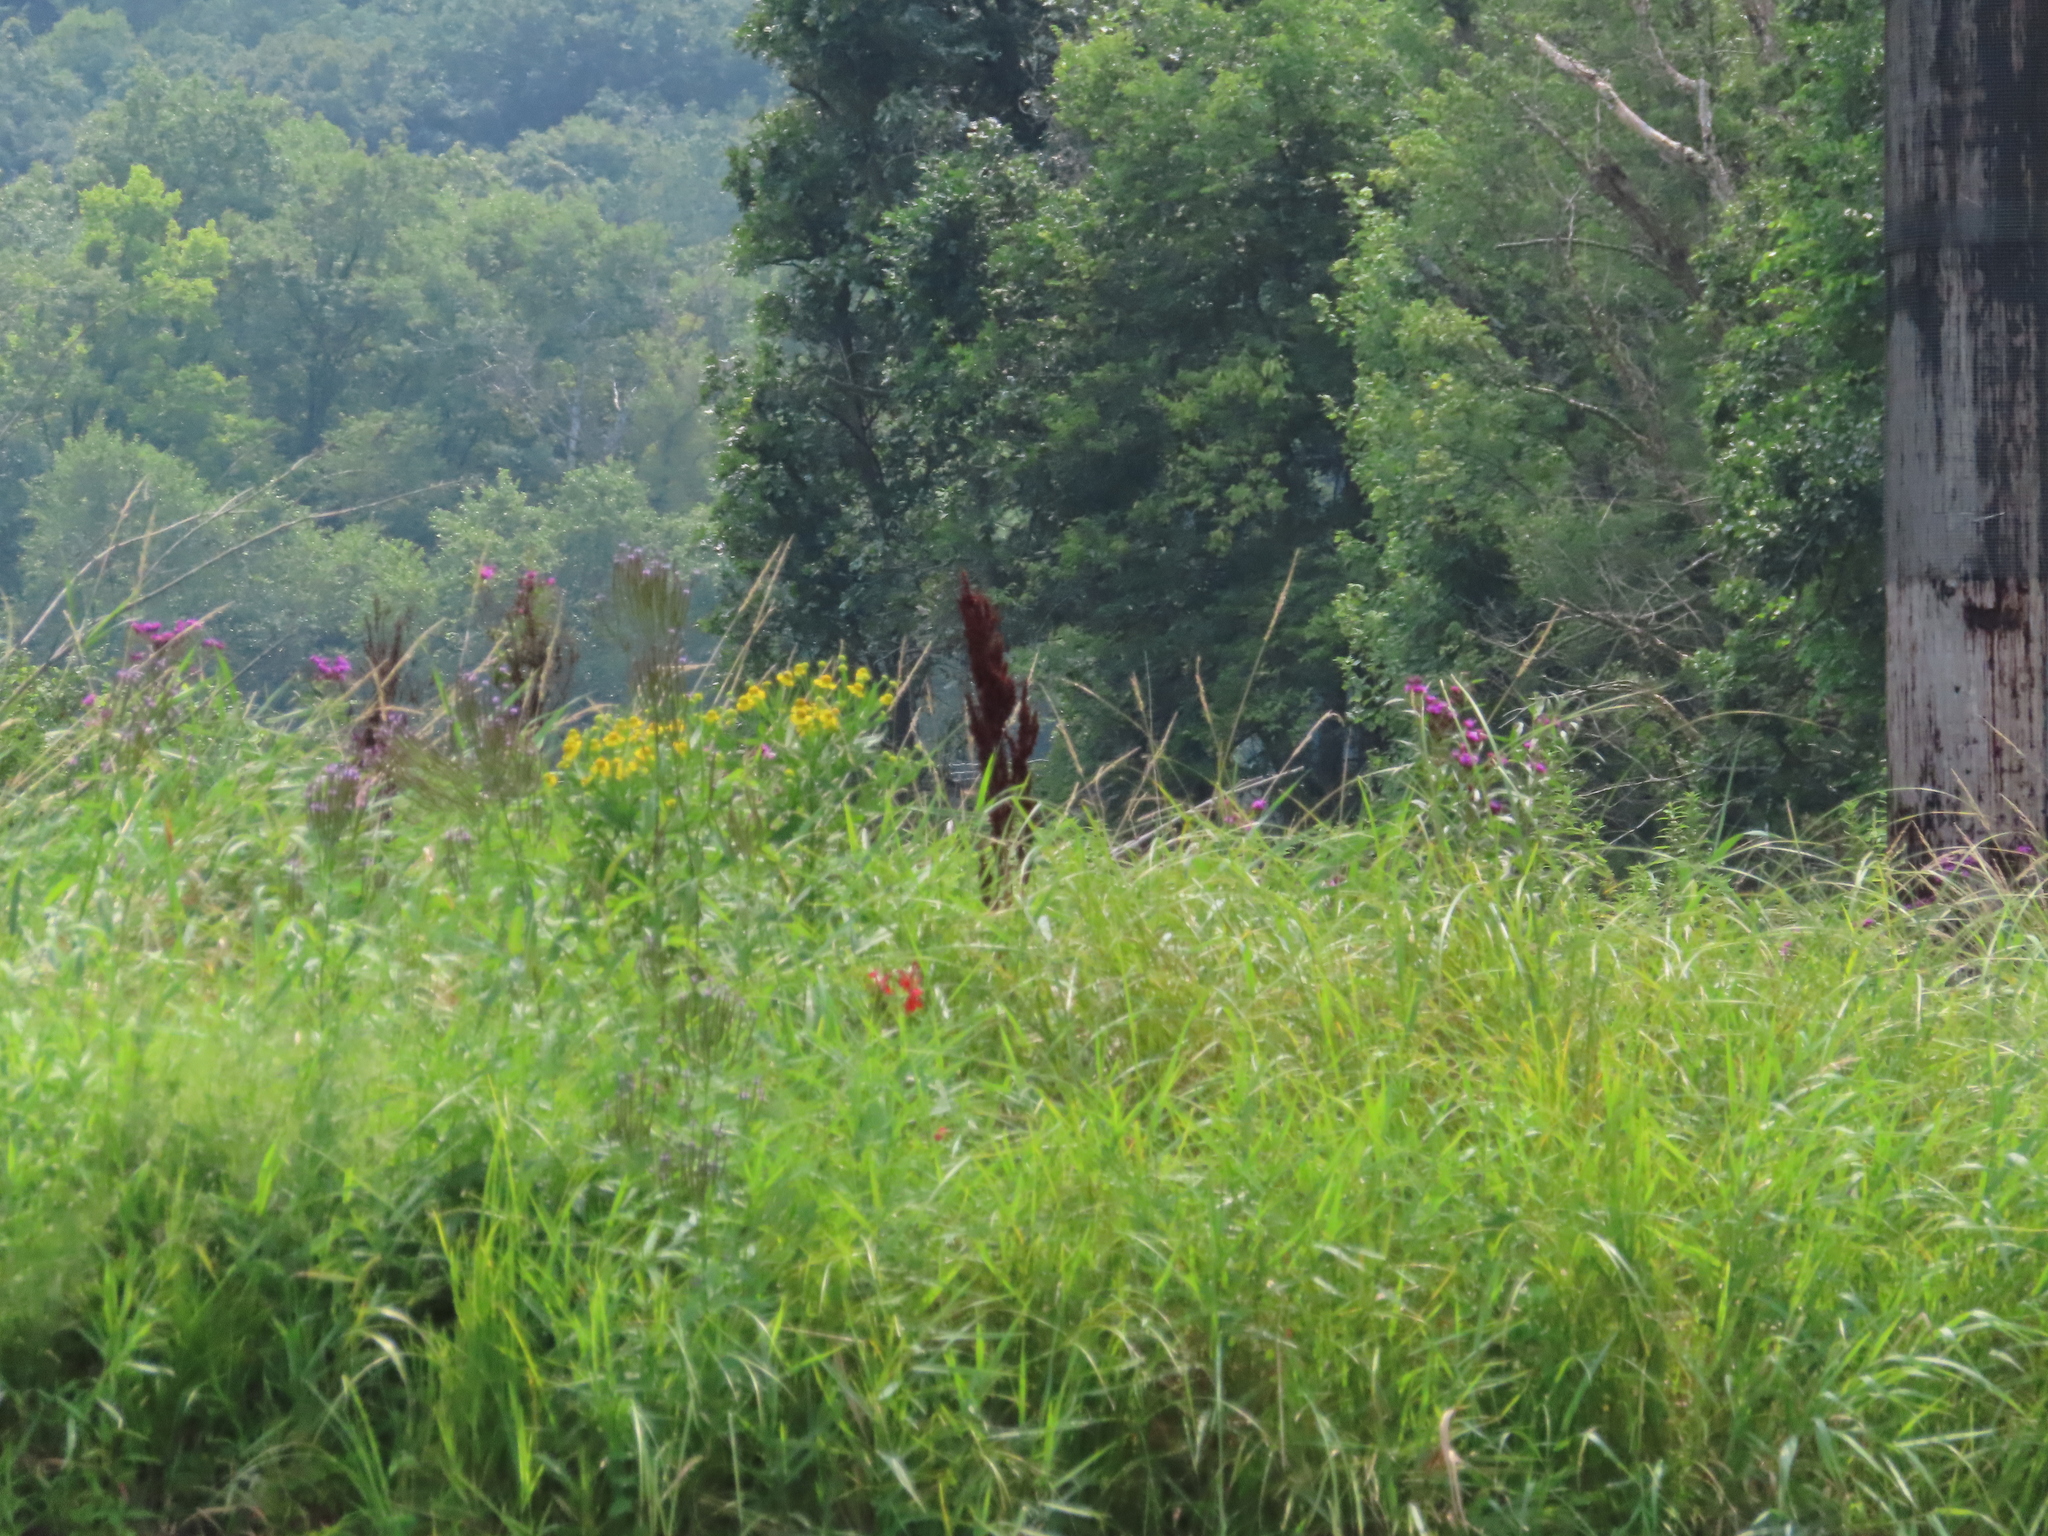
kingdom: Plantae
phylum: Tracheophyta
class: Magnoliopsida
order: Asterales
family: Campanulaceae
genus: Lobelia
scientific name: Lobelia cardinalis
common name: Cardinal flower
